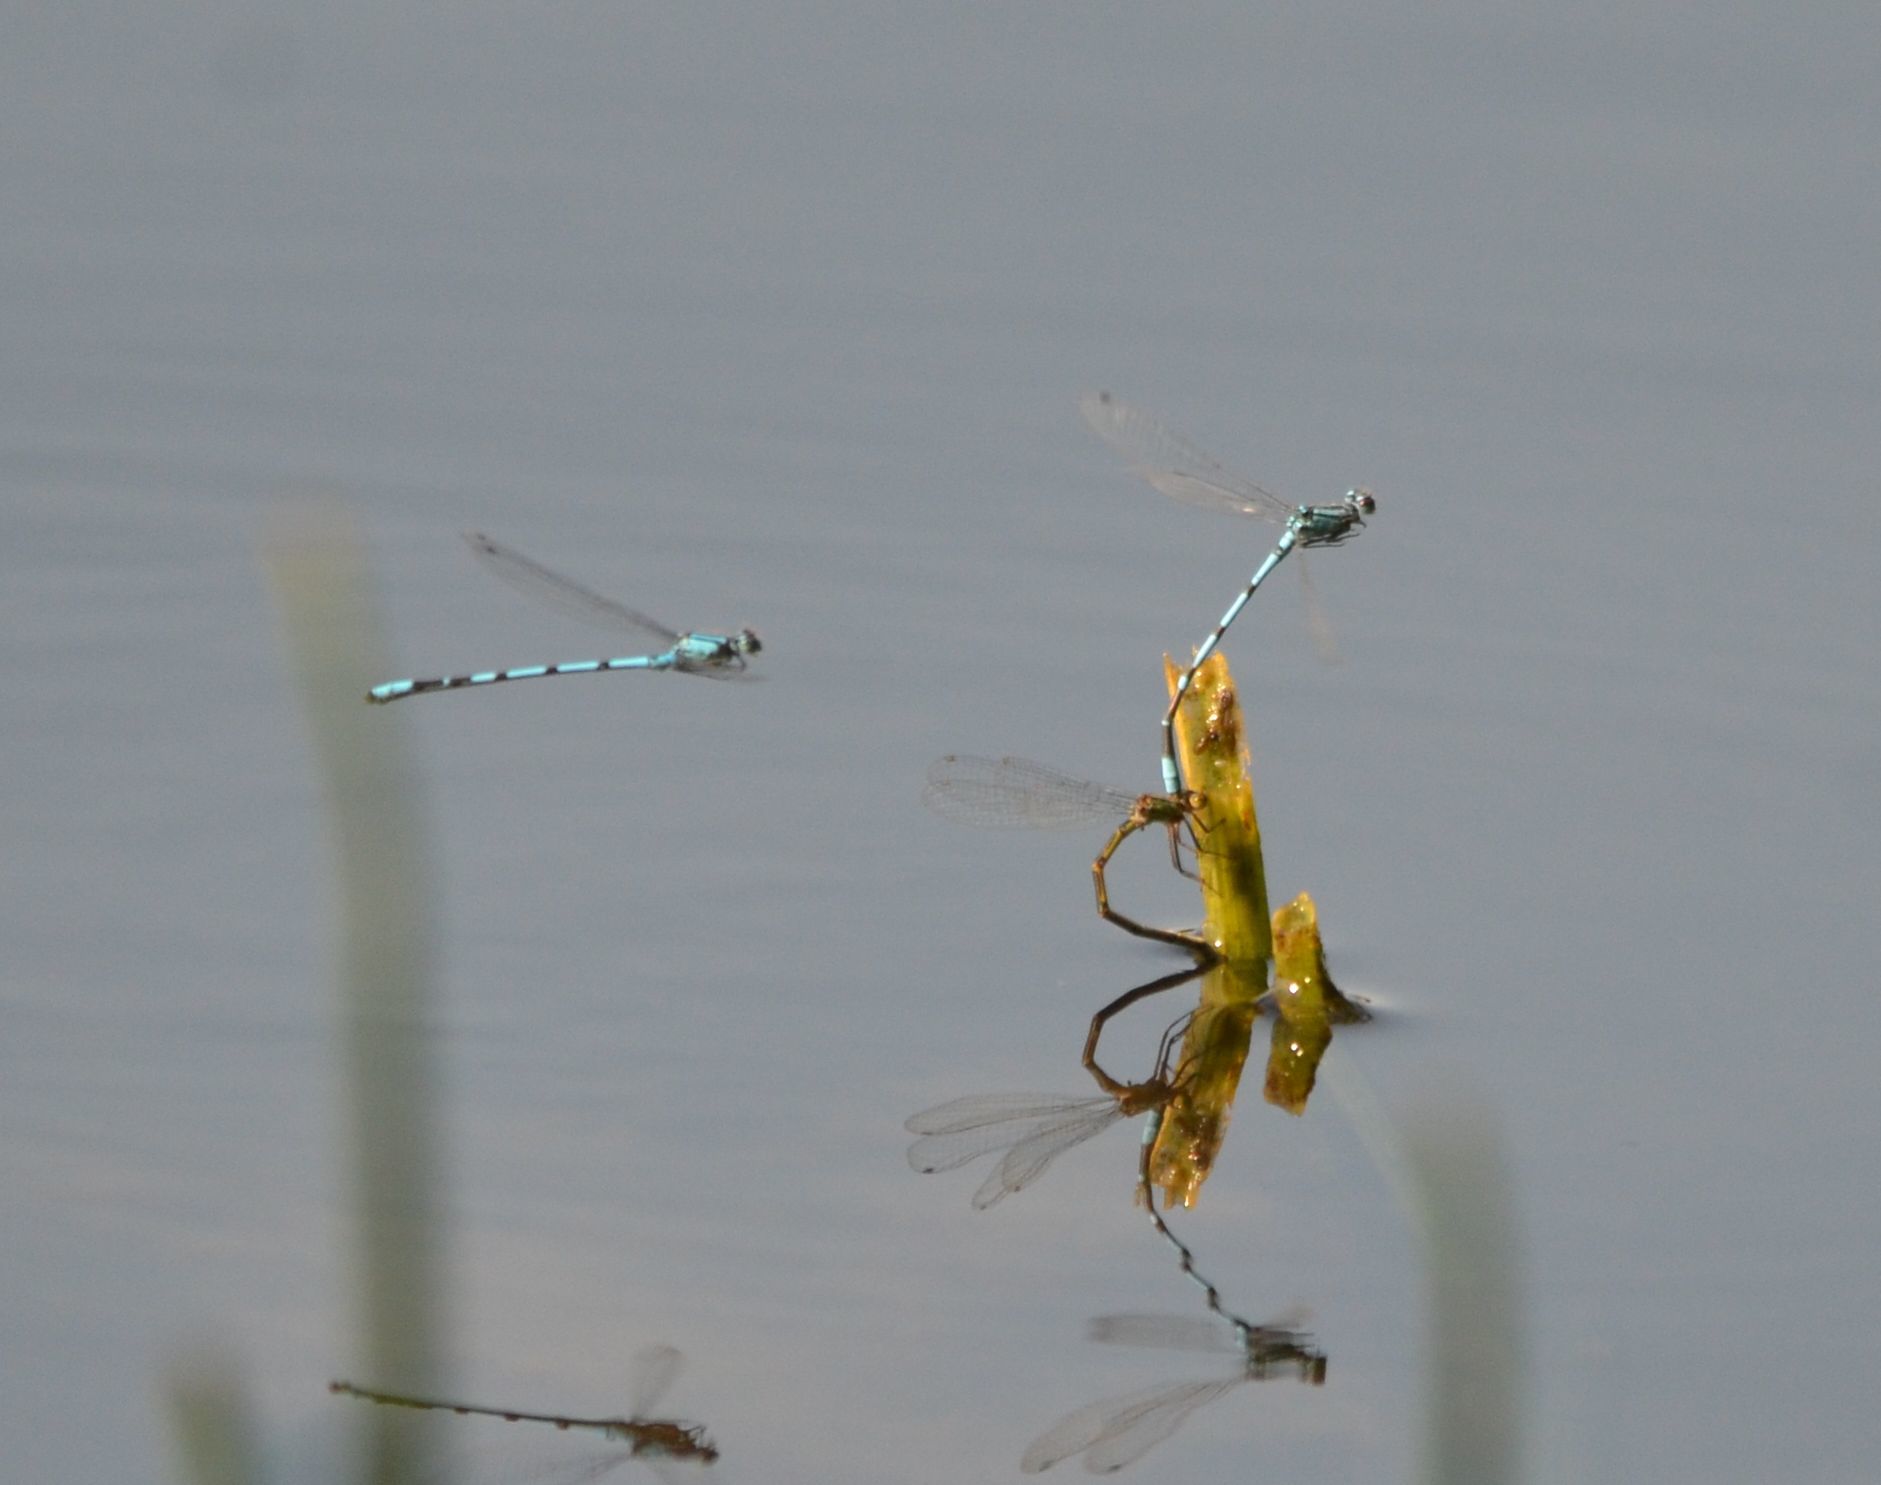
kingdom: Animalia
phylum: Arthropoda
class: Insecta
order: Odonata
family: Coenagrionidae
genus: Enallagma
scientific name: Enallagma cyathigerum
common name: Common blue damselfly
